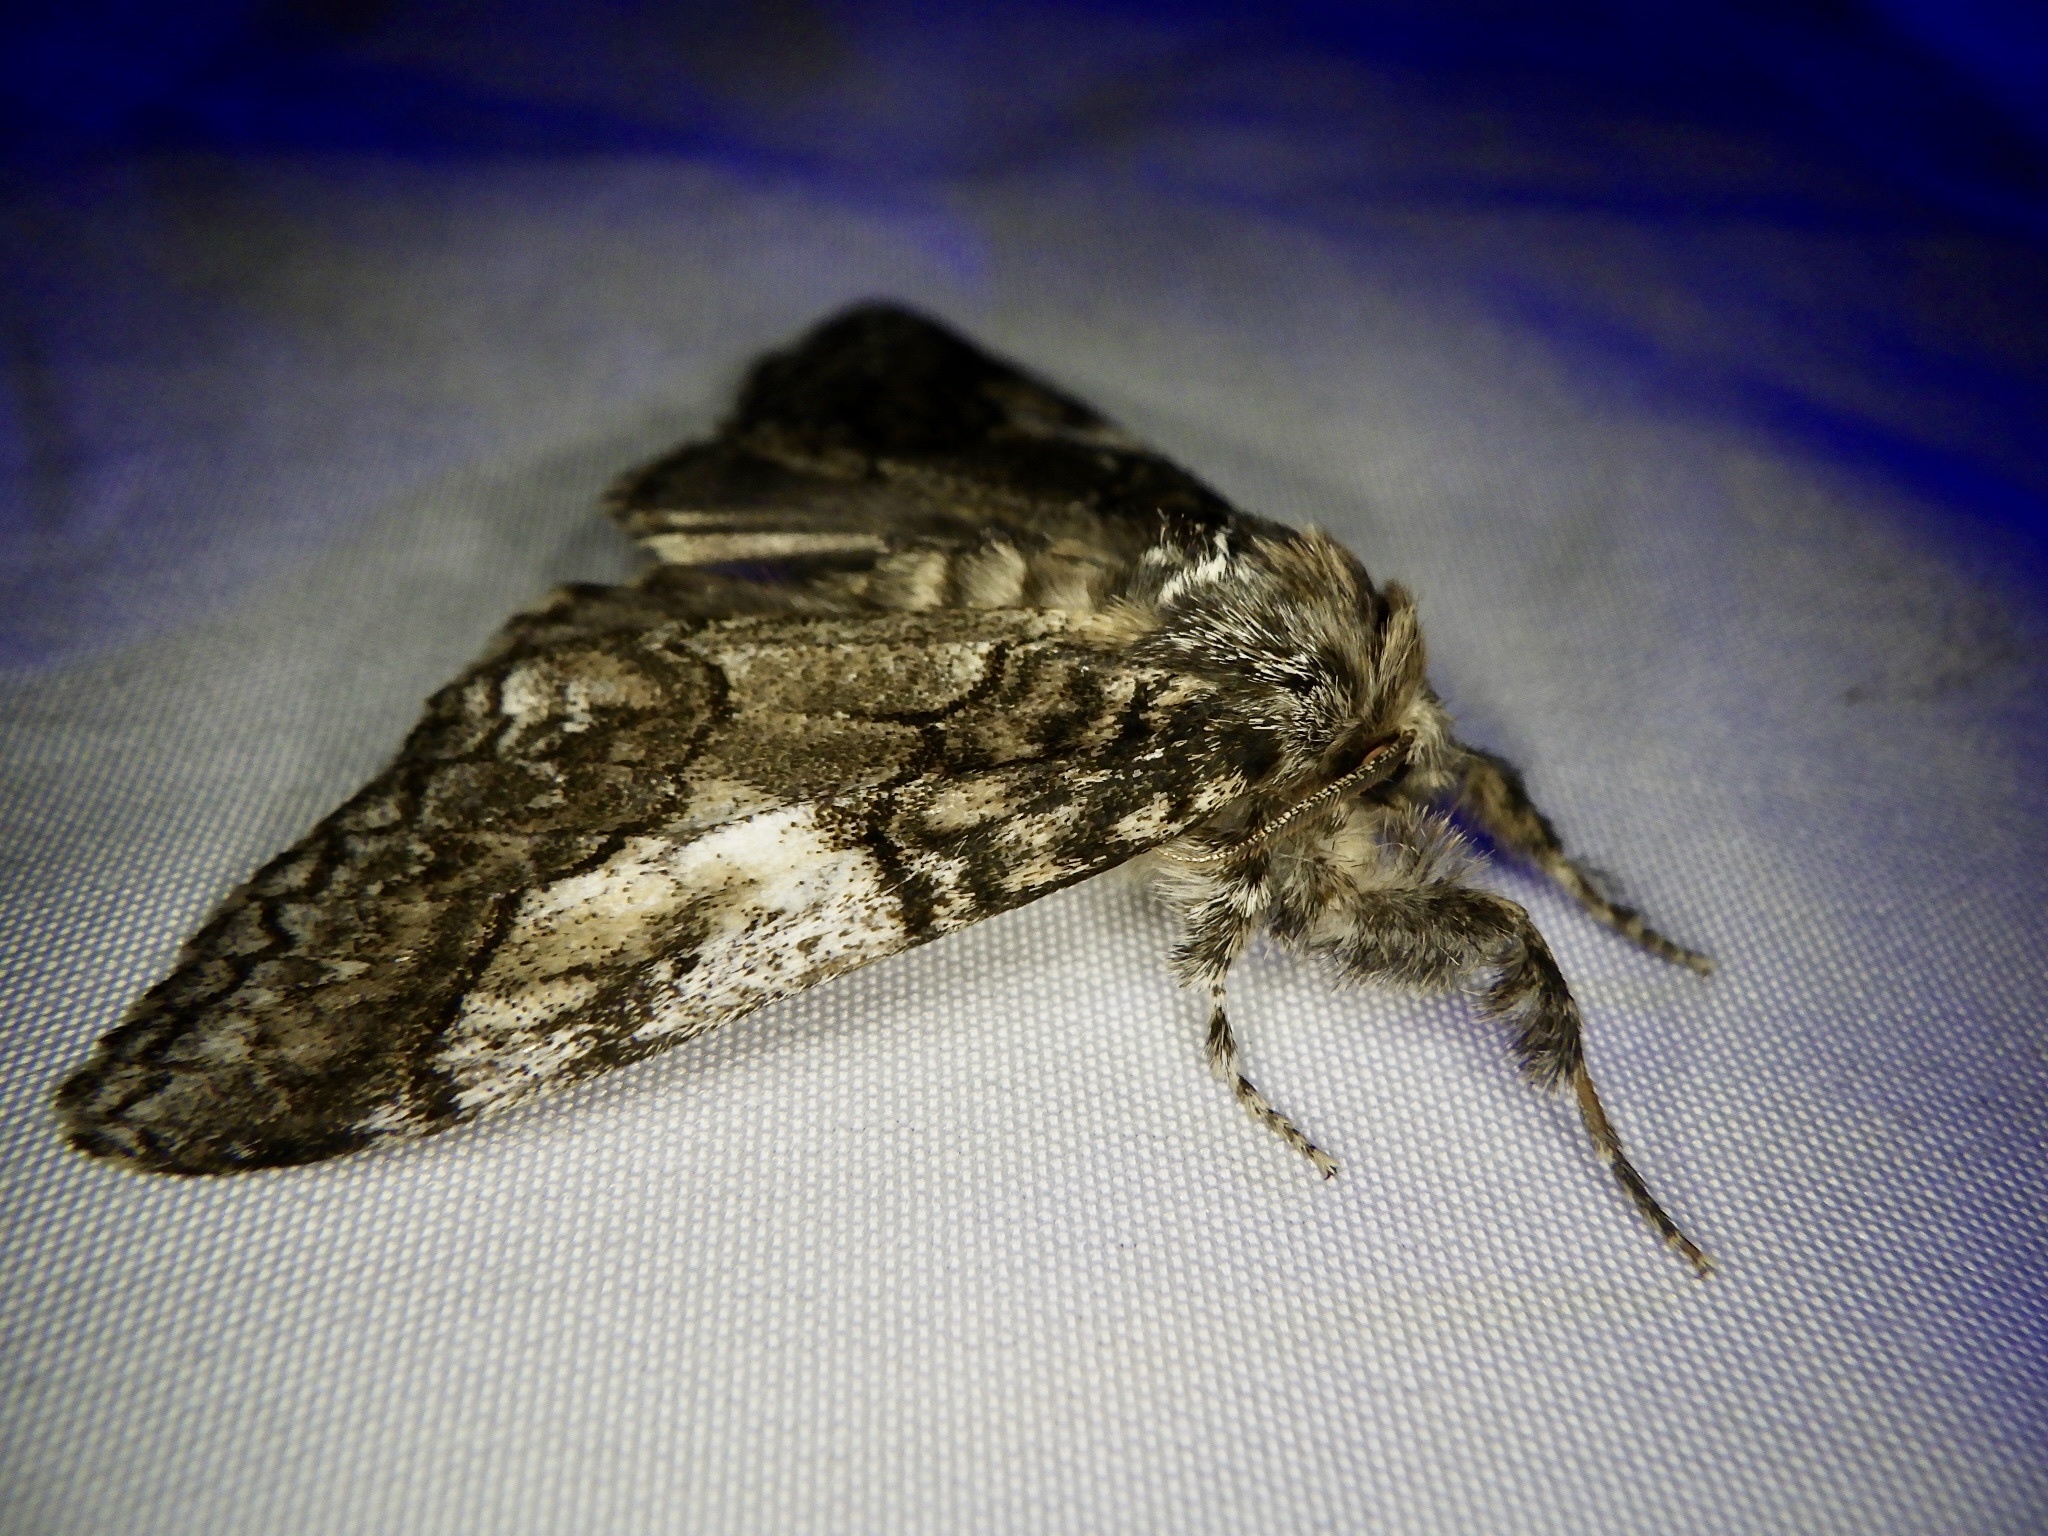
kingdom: Animalia
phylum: Arthropoda
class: Insecta
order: Lepidoptera
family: Erebidae
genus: Calliteara
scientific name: Calliteara conjuncta
